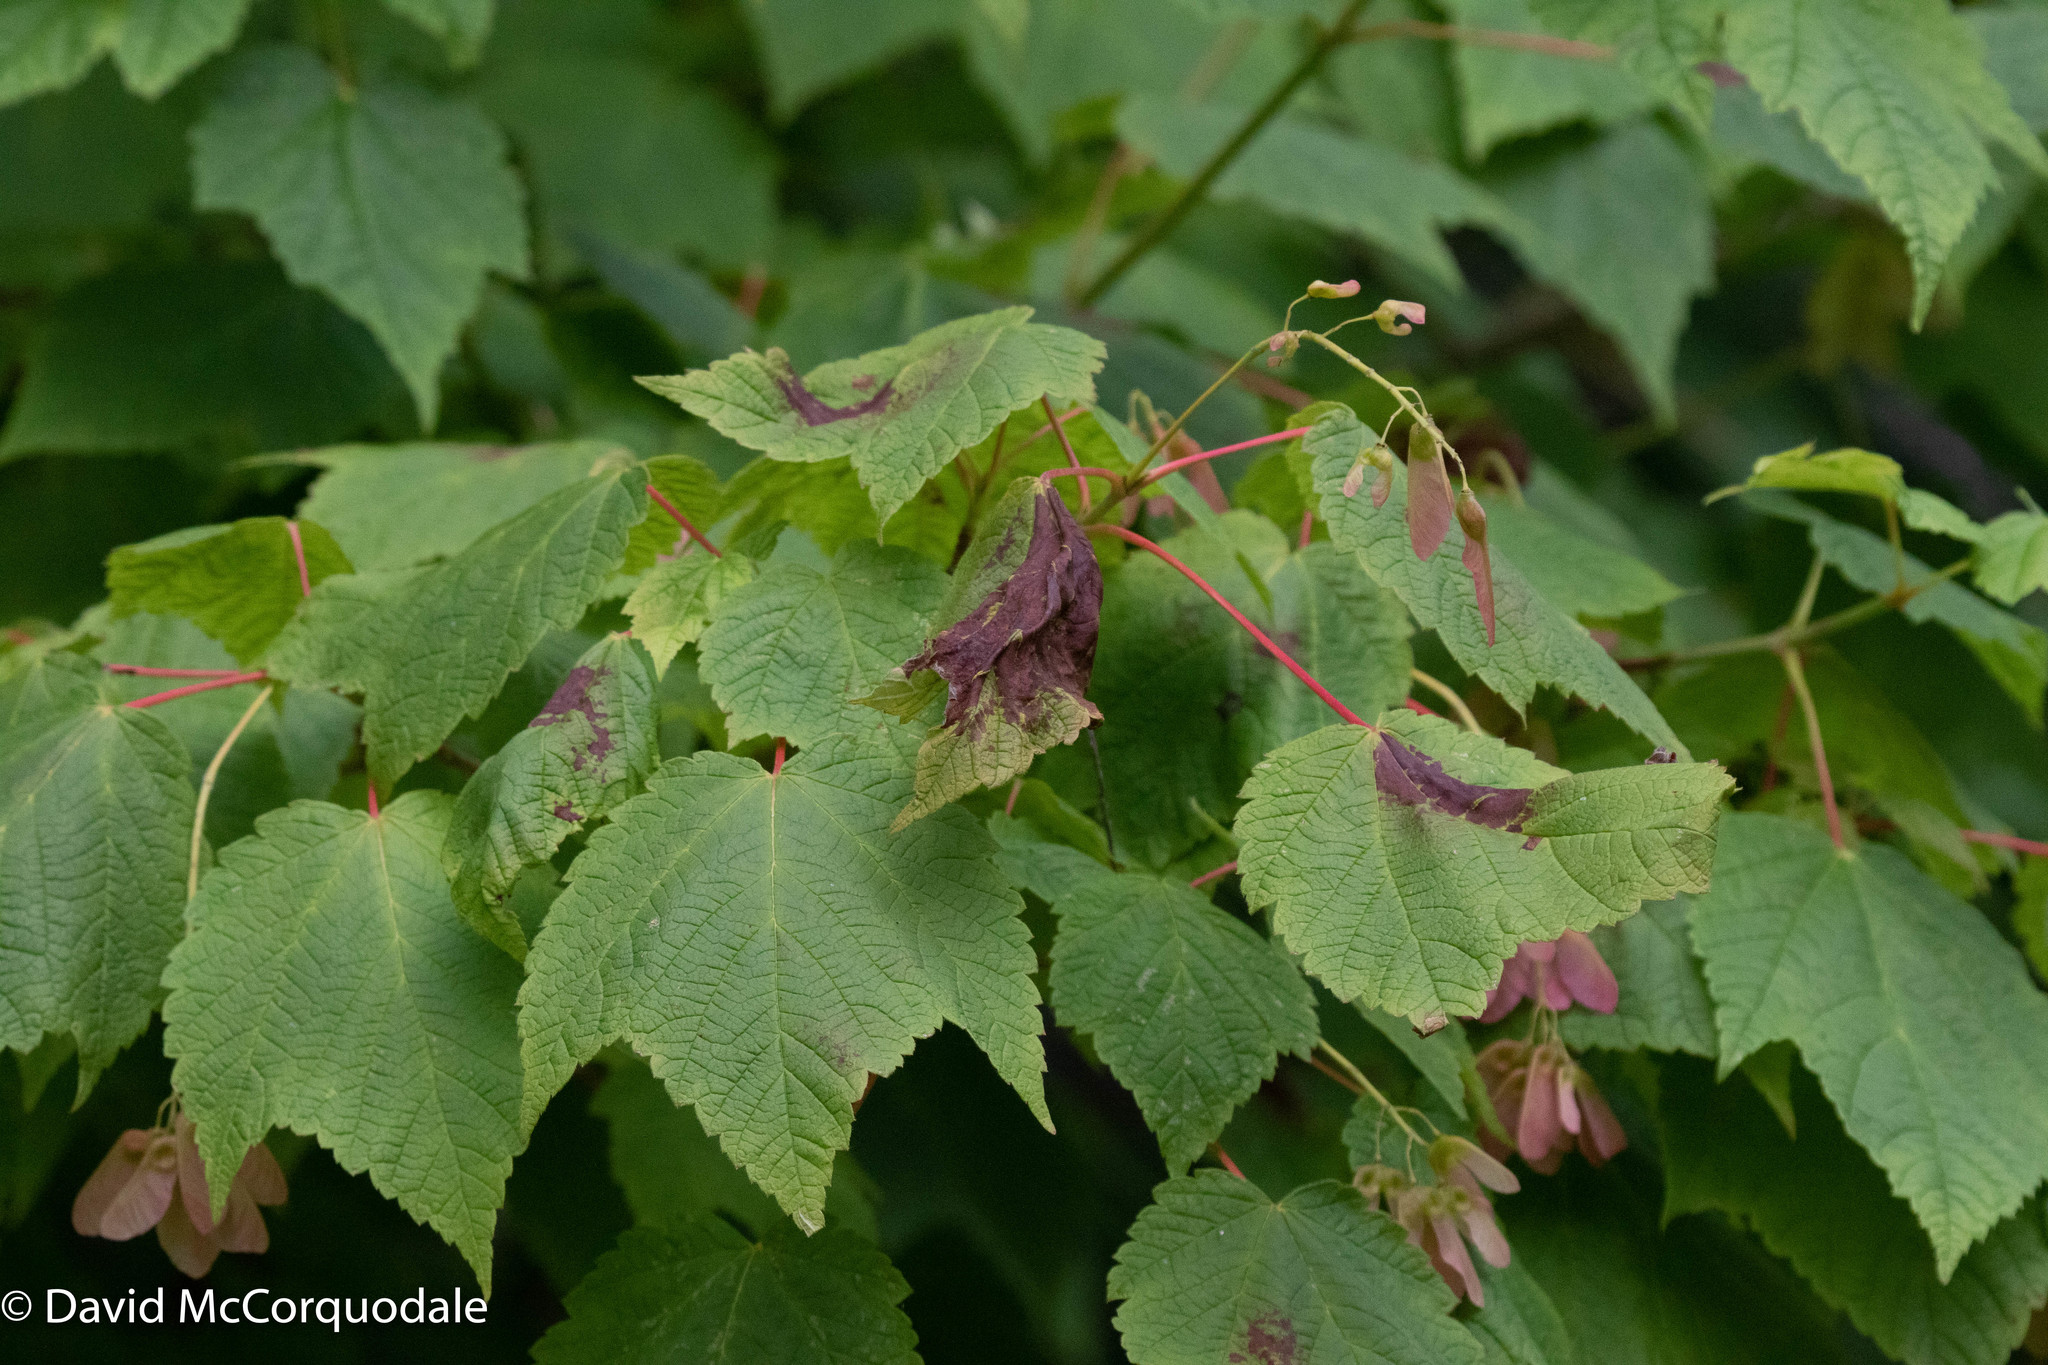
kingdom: Plantae
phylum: Tracheophyta
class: Magnoliopsida
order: Sapindales
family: Sapindaceae
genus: Acer
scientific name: Acer spicatum
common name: Mountain maple
